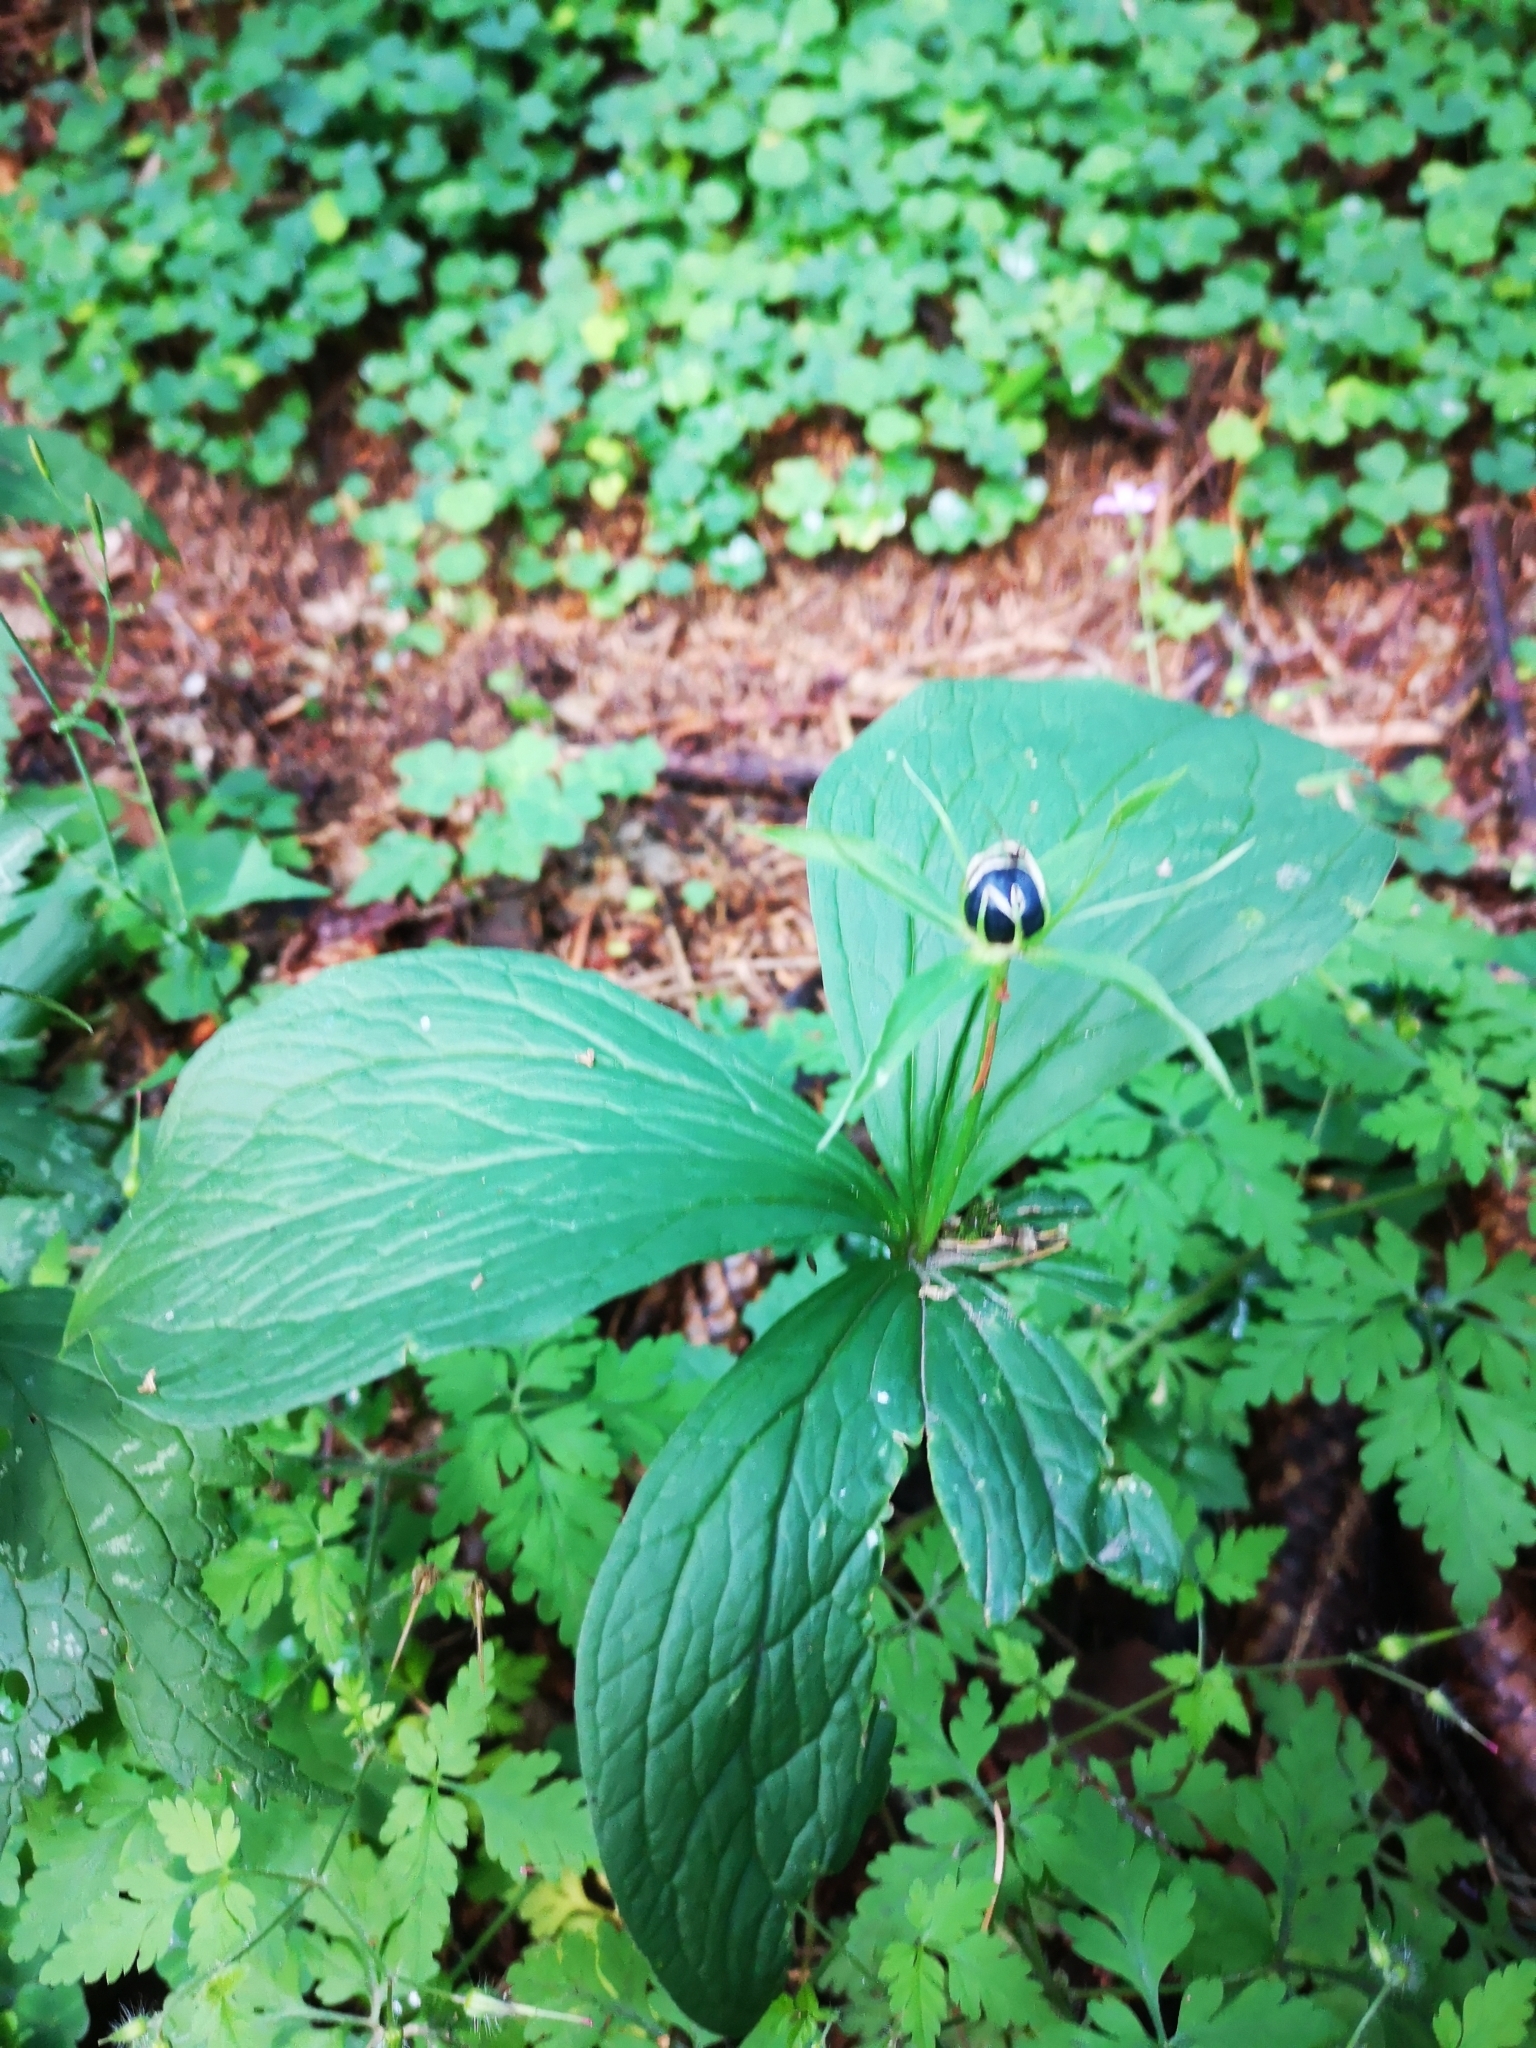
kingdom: Plantae
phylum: Tracheophyta
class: Liliopsida
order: Liliales
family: Melanthiaceae
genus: Paris
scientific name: Paris quadrifolia
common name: Herb-paris
